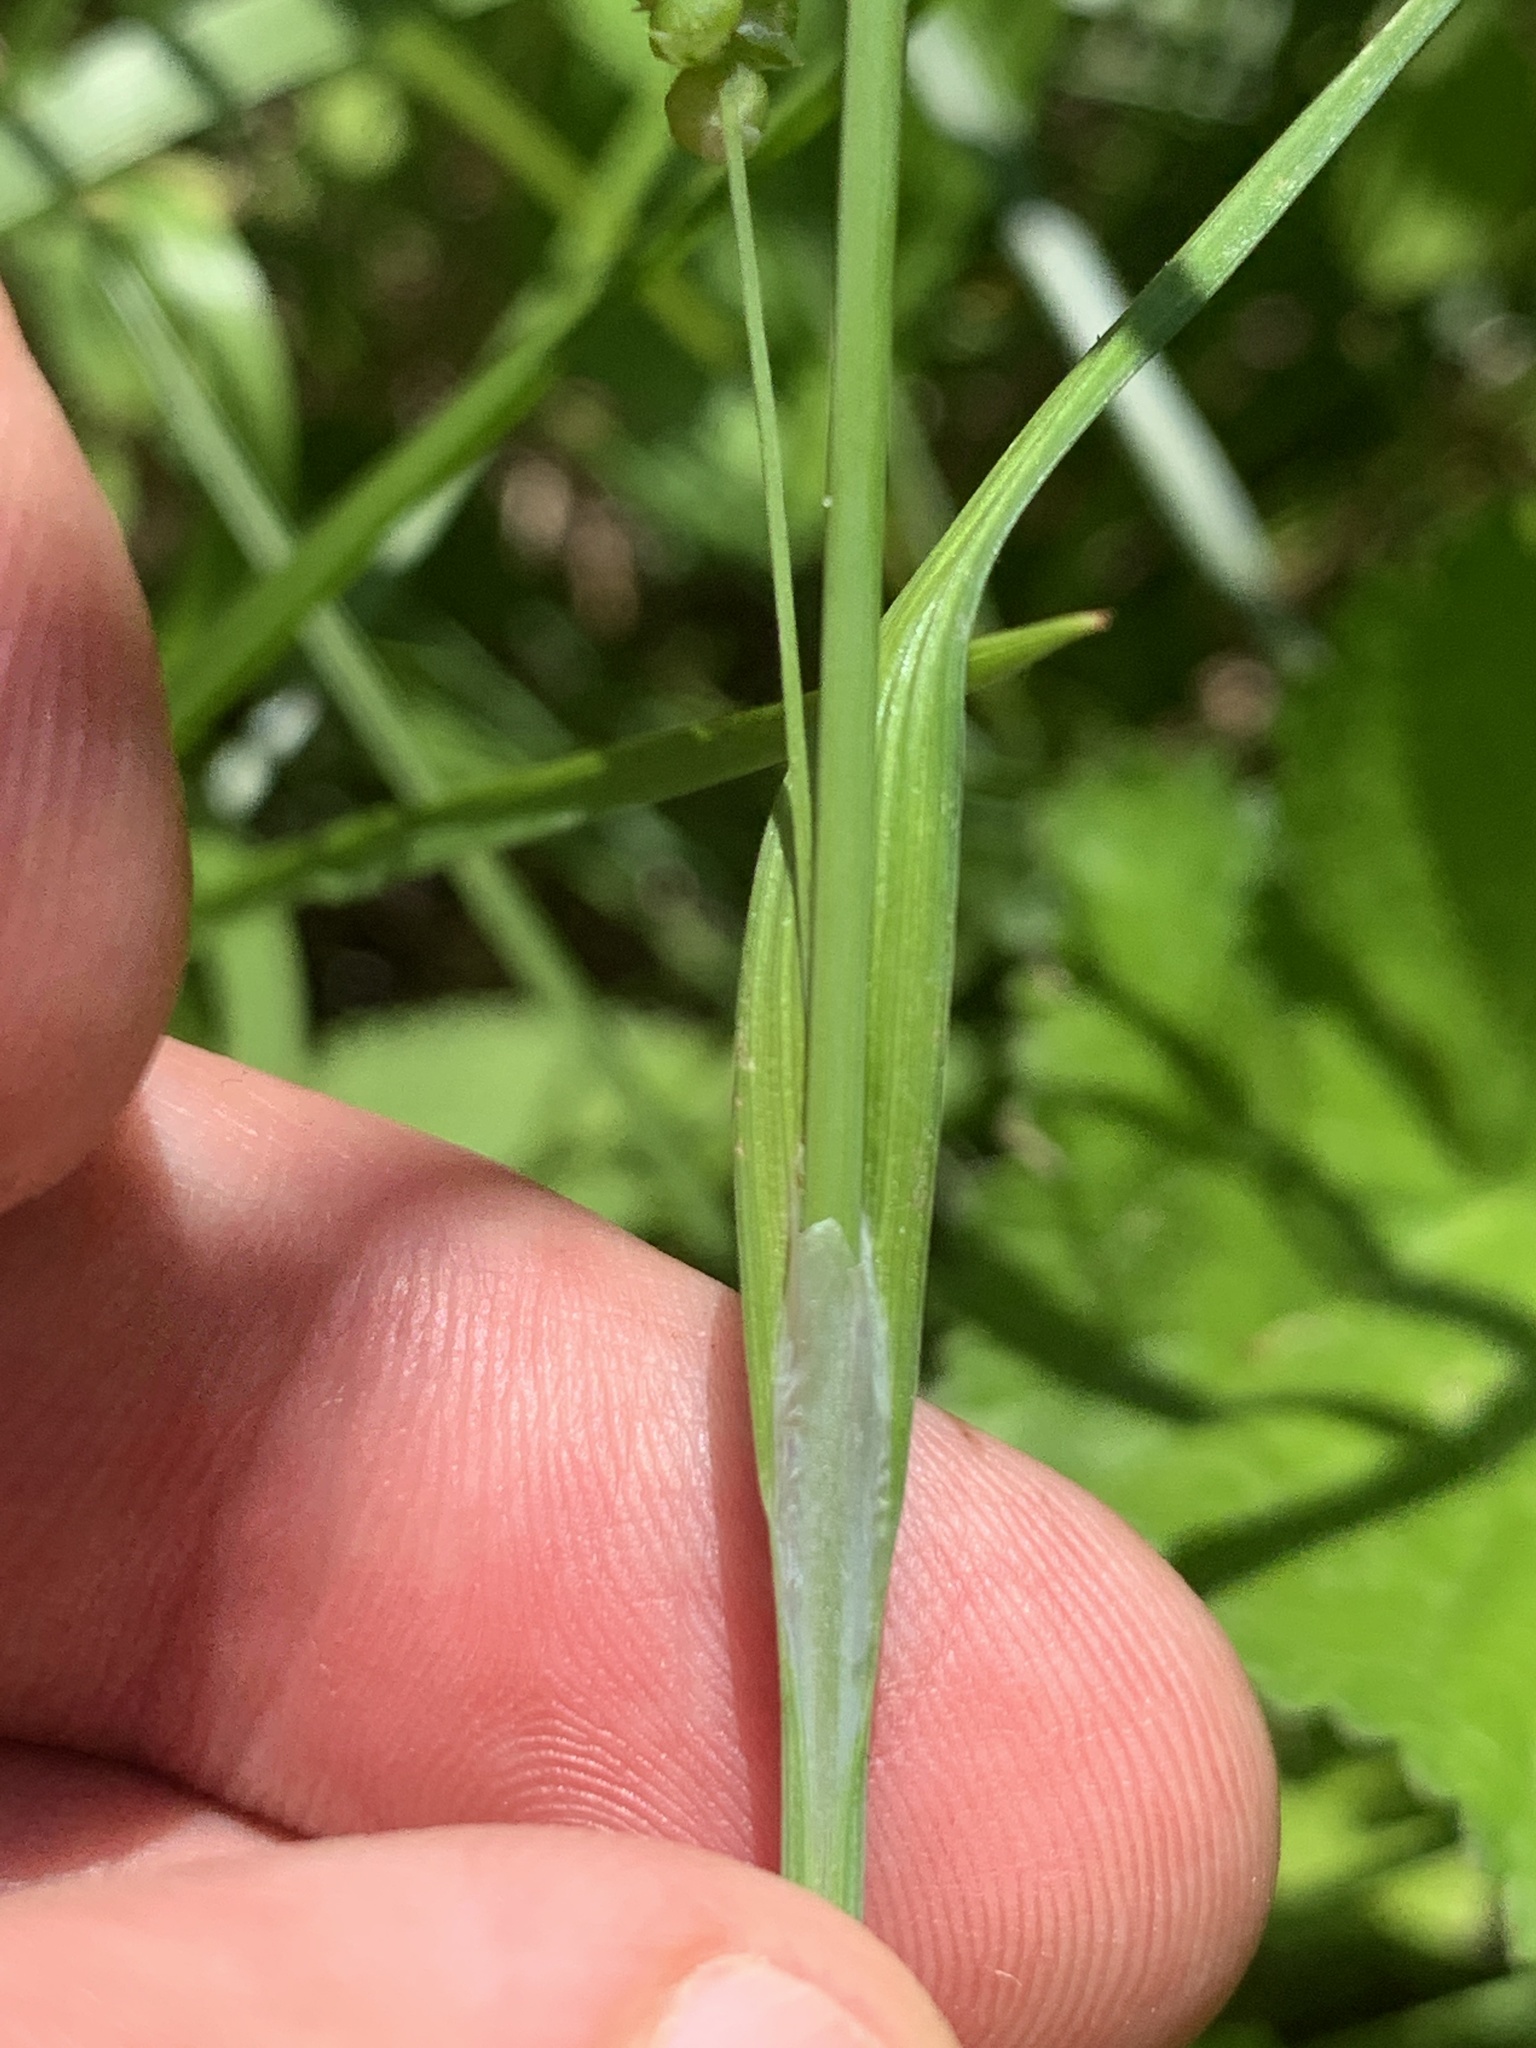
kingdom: Plantae
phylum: Tracheophyta
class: Liliopsida
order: Poales
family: Cyperaceae
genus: Carex
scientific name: Carex granularis
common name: Granular sedge
